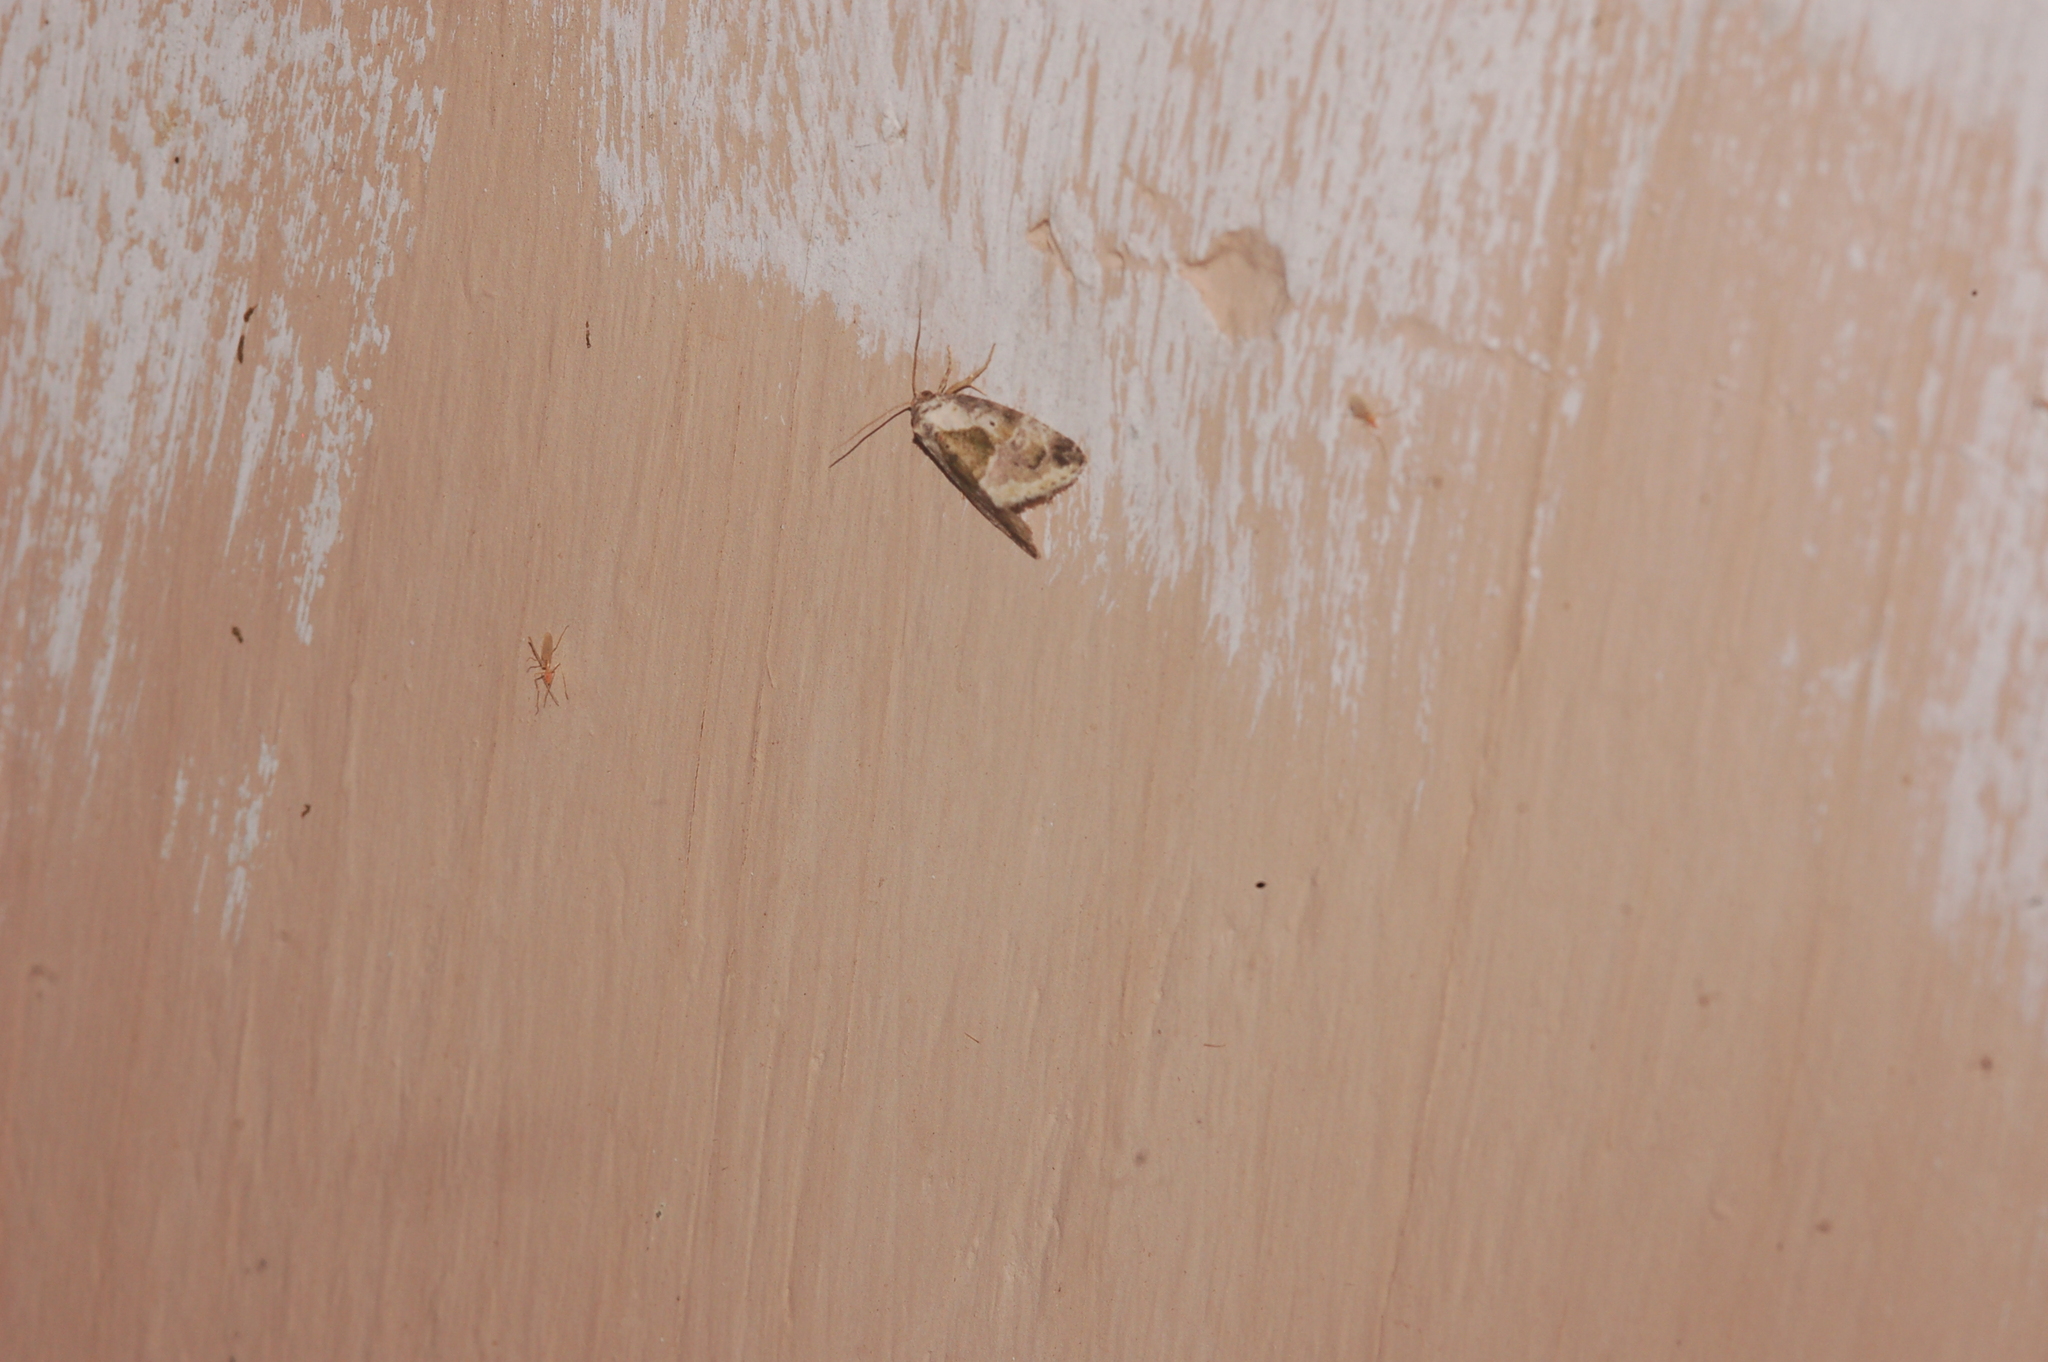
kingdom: Animalia
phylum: Arthropoda
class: Insecta
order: Lepidoptera
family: Noctuidae
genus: Maliattha
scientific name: Maliattha synochitis
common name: Black-dotted glyph
